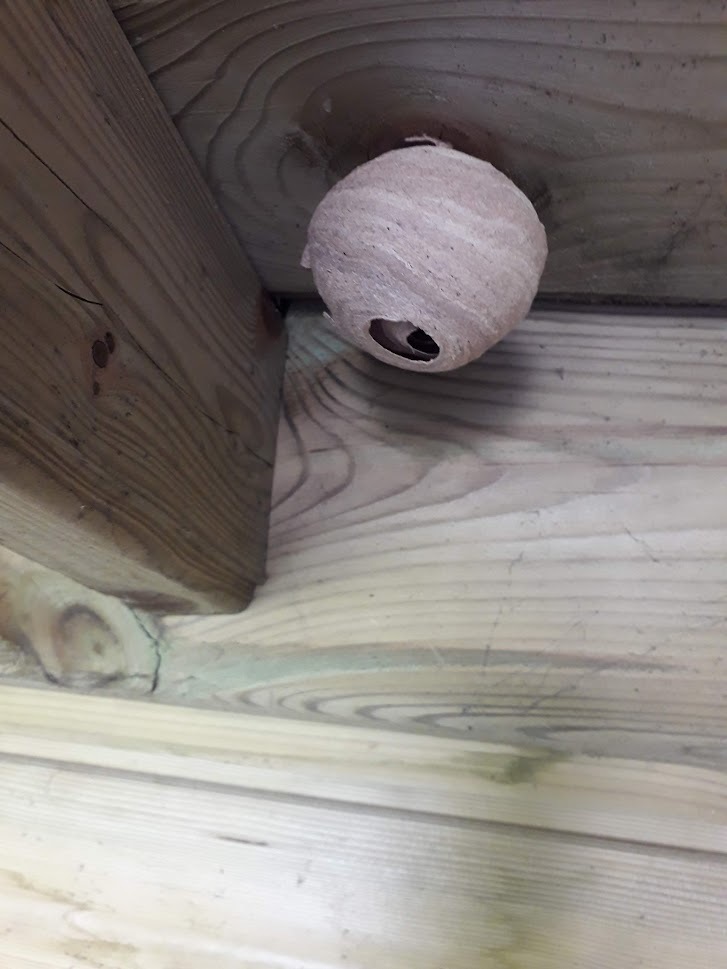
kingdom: Animalia
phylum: Arthropoda
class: Insecta
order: Hymenoptera
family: Vespidae
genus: Vespa
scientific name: Vespa velutina
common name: Asian hornet
